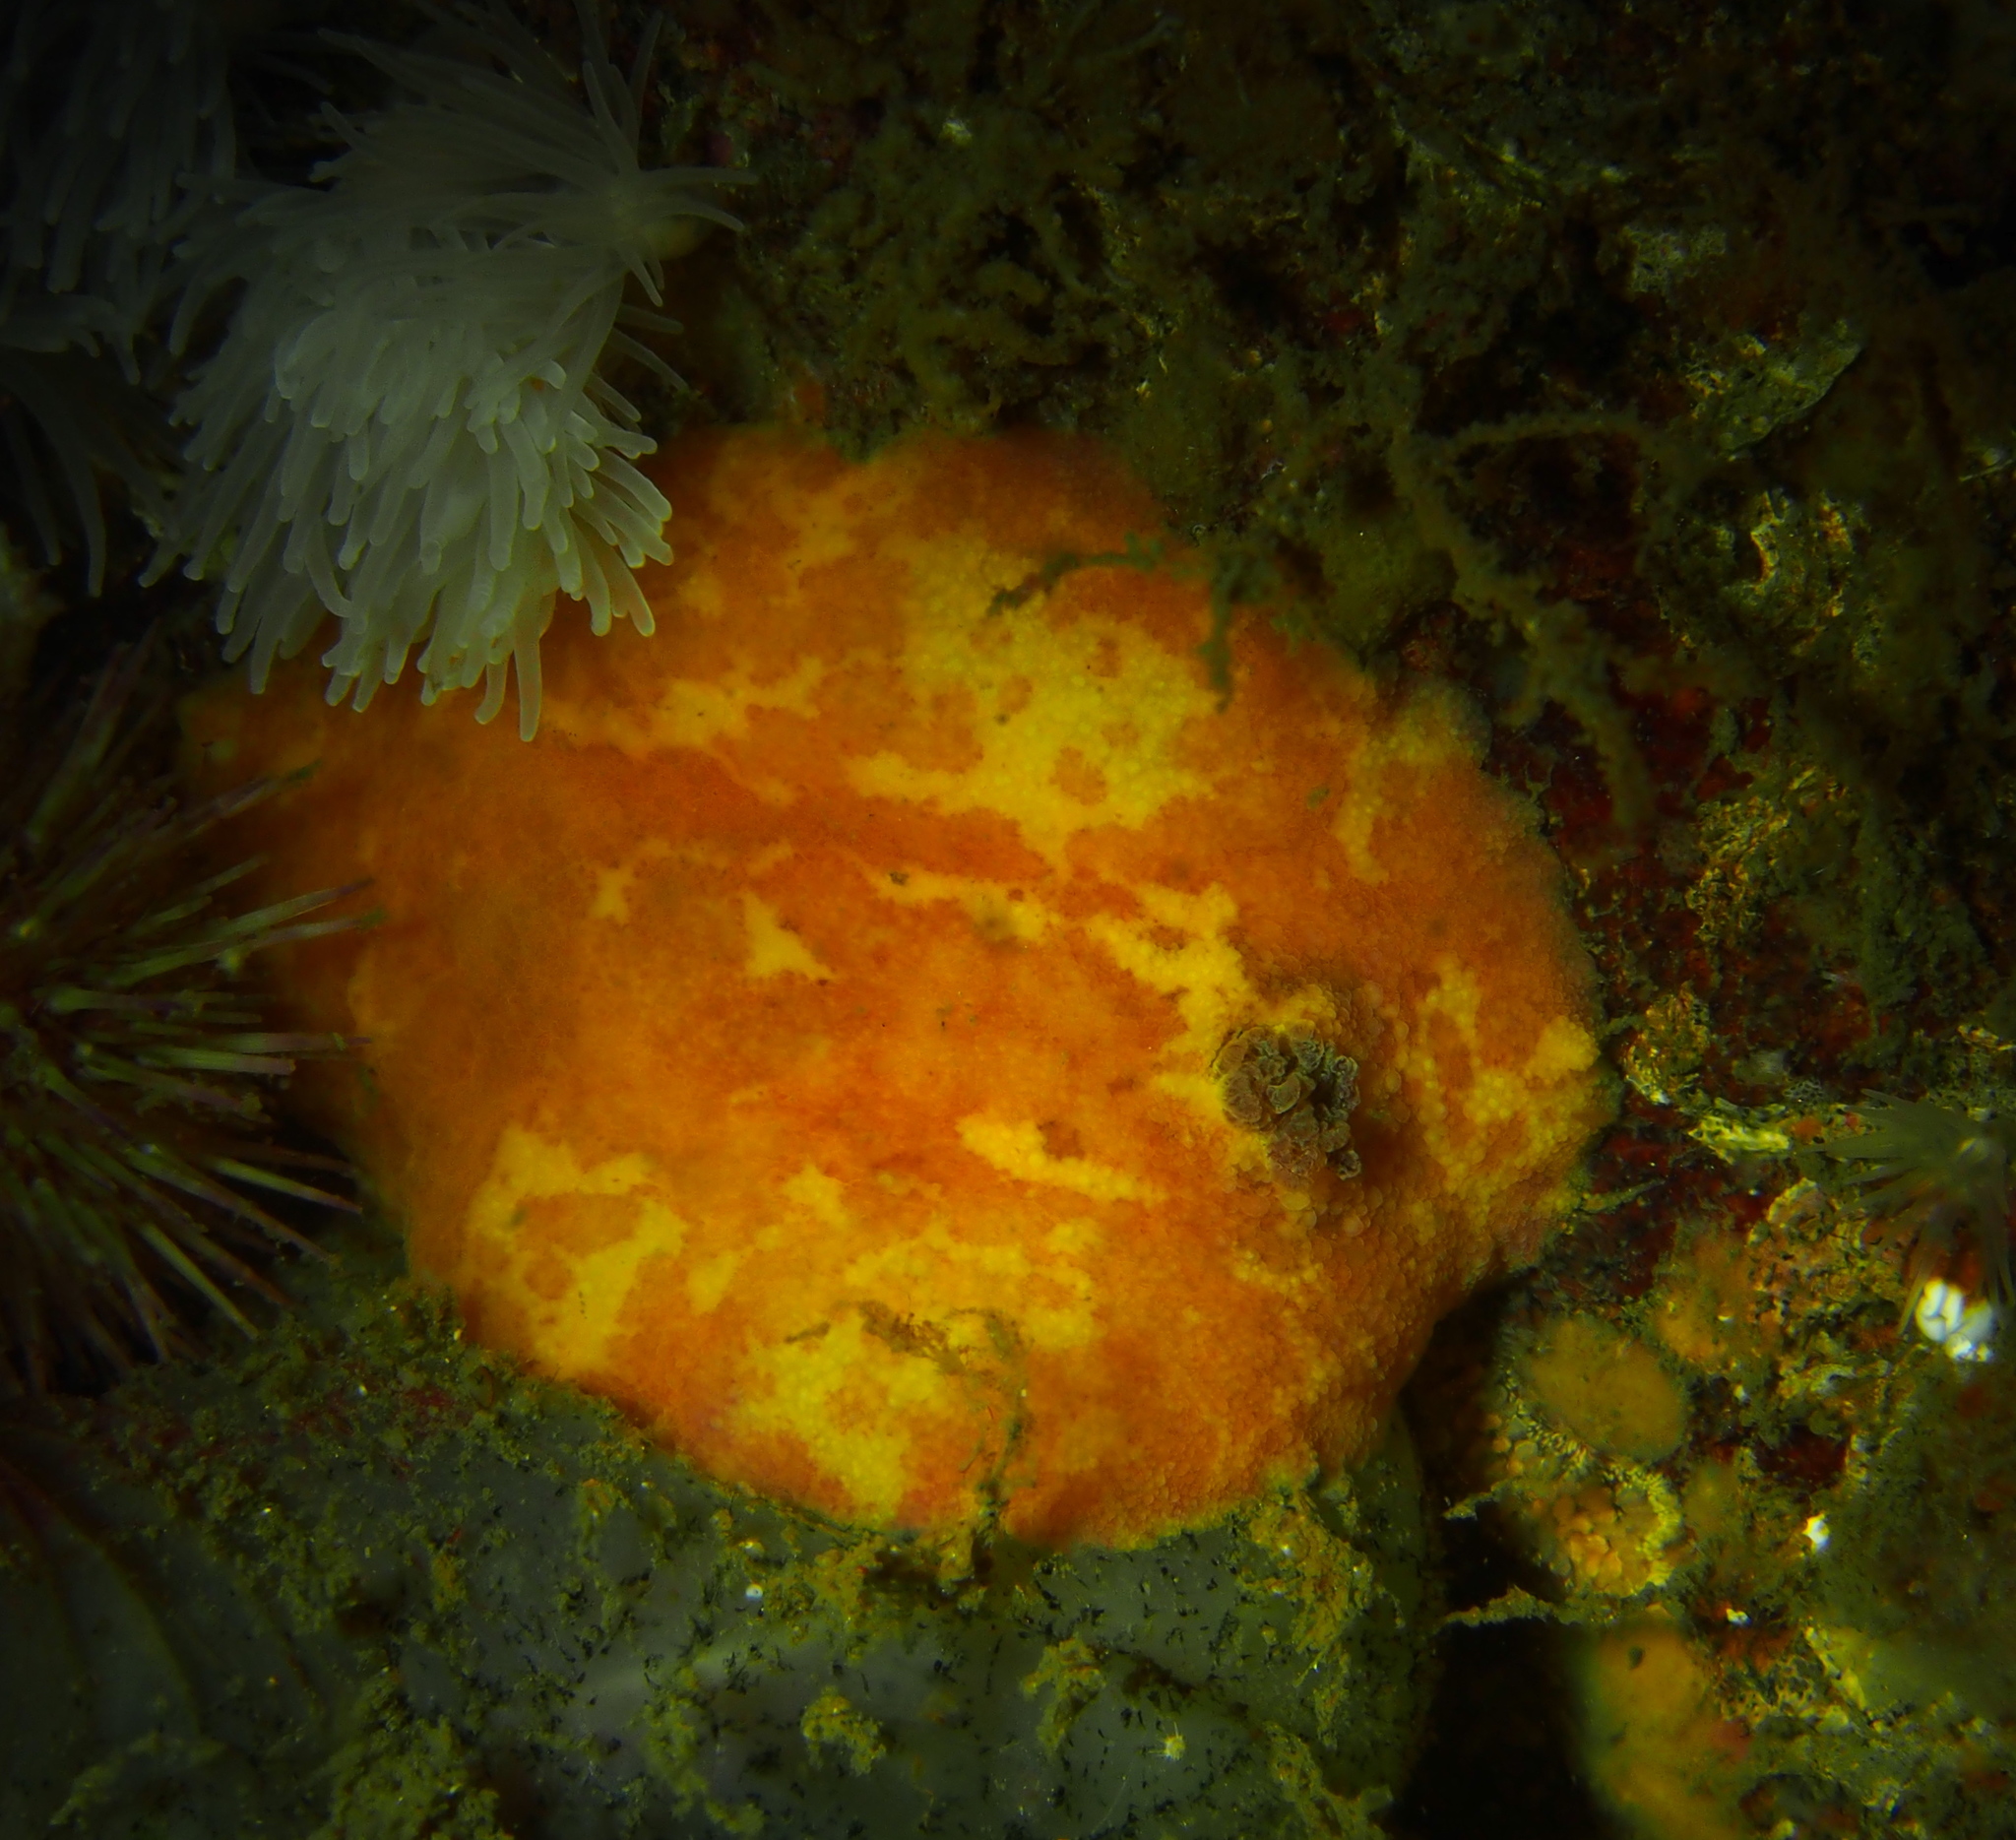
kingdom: Animalia
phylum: Mollusca
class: Gastropoda
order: Nudibranchia
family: Dorididae
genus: Doris
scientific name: Doris pseudoargus
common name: Sea lemon
